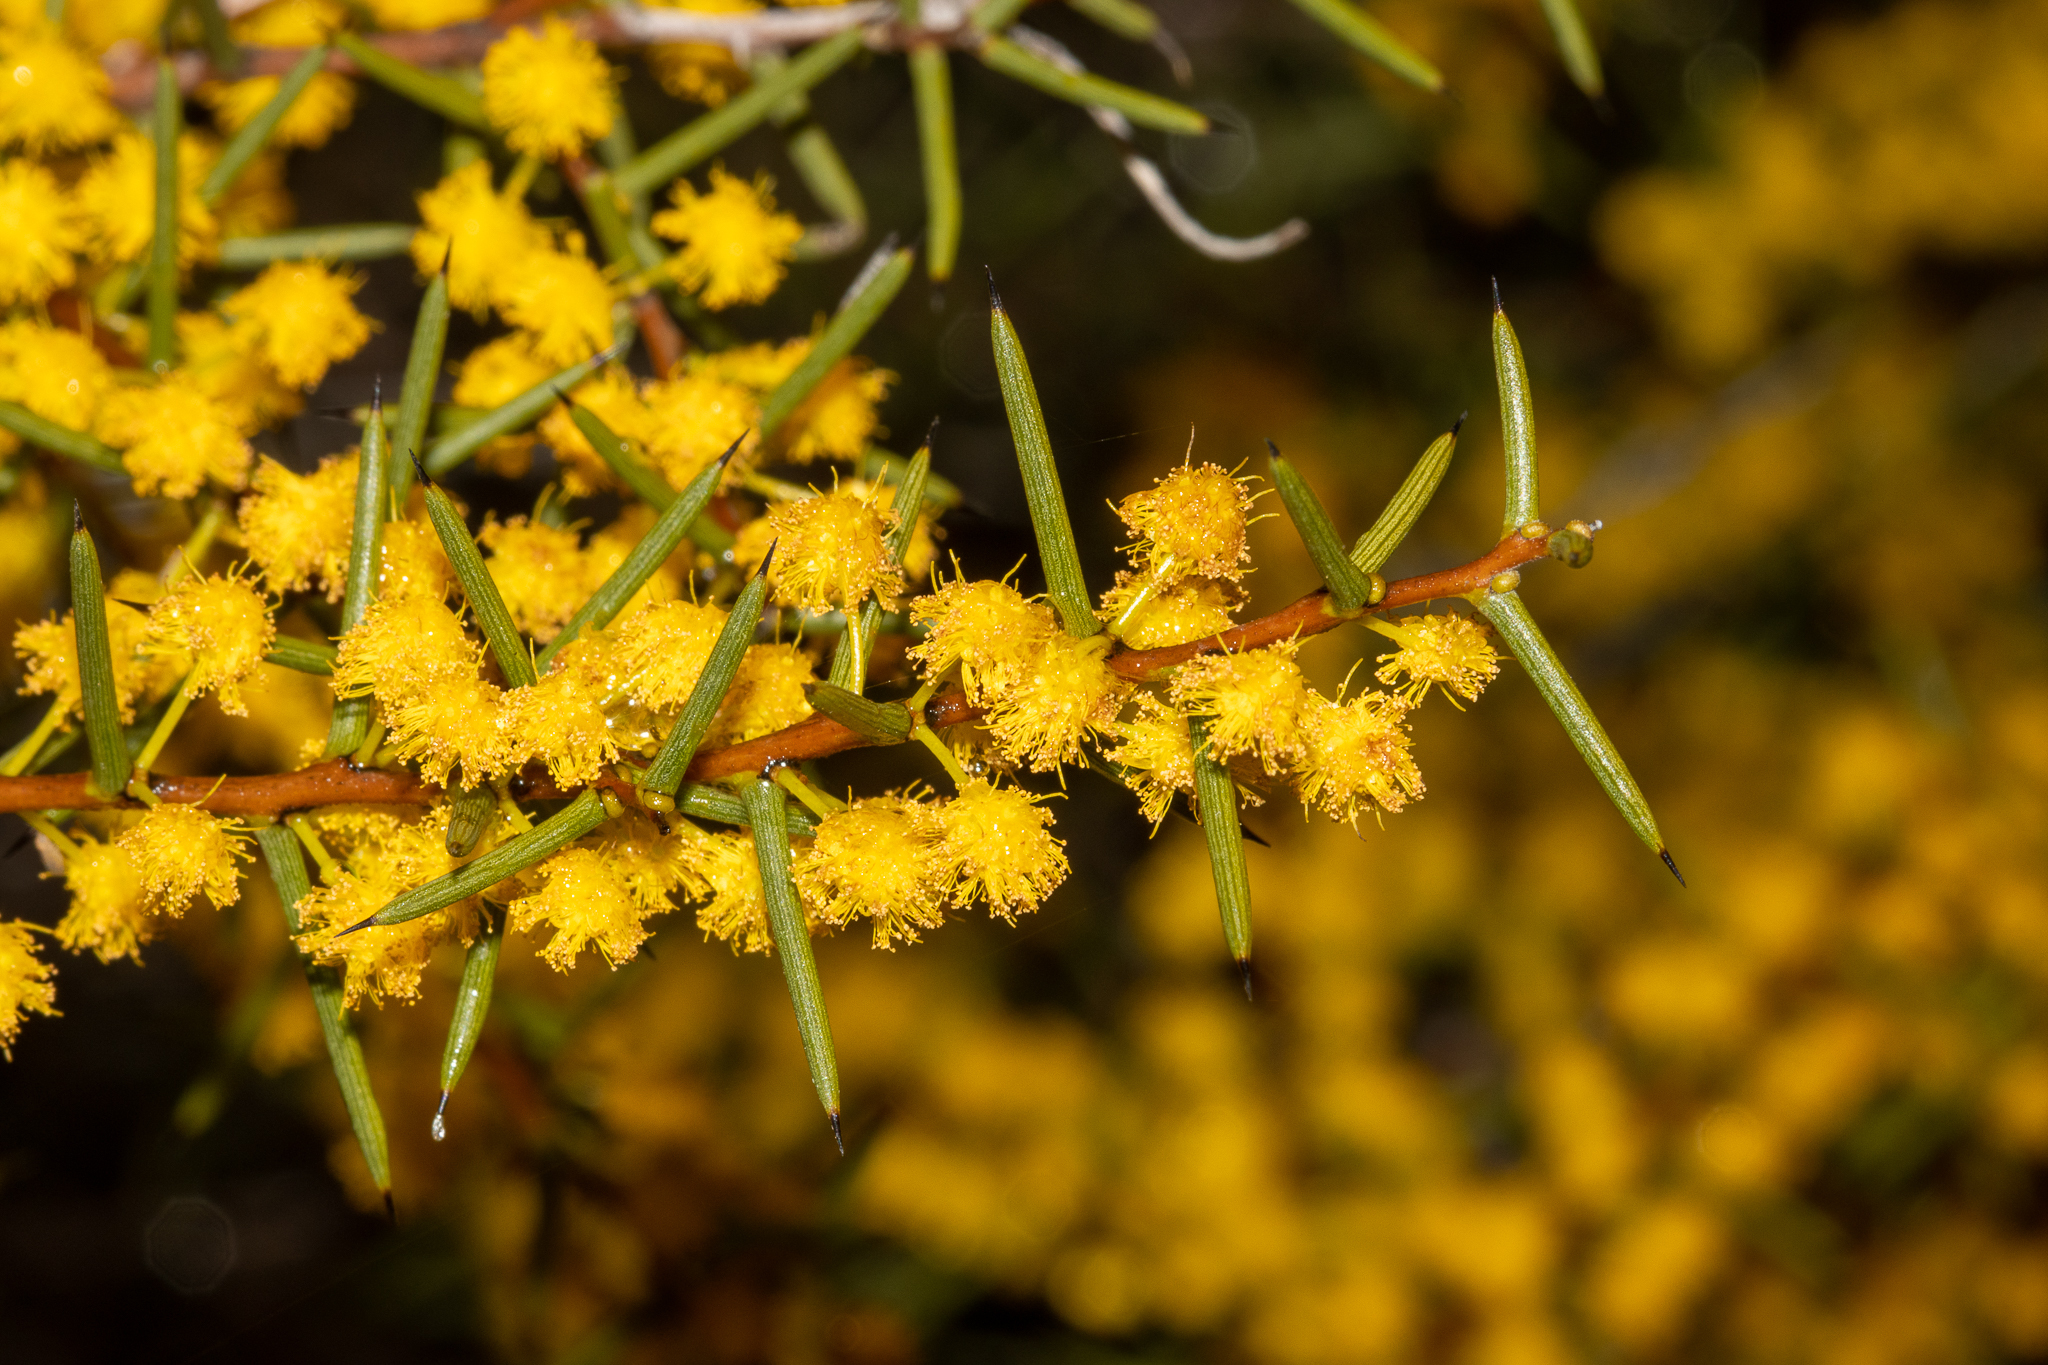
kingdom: Plantae
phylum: Tracheophyta
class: Magnoliopsida
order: Fabales
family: Fabaceae
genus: Acacia
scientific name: Acacia nyssophylla
